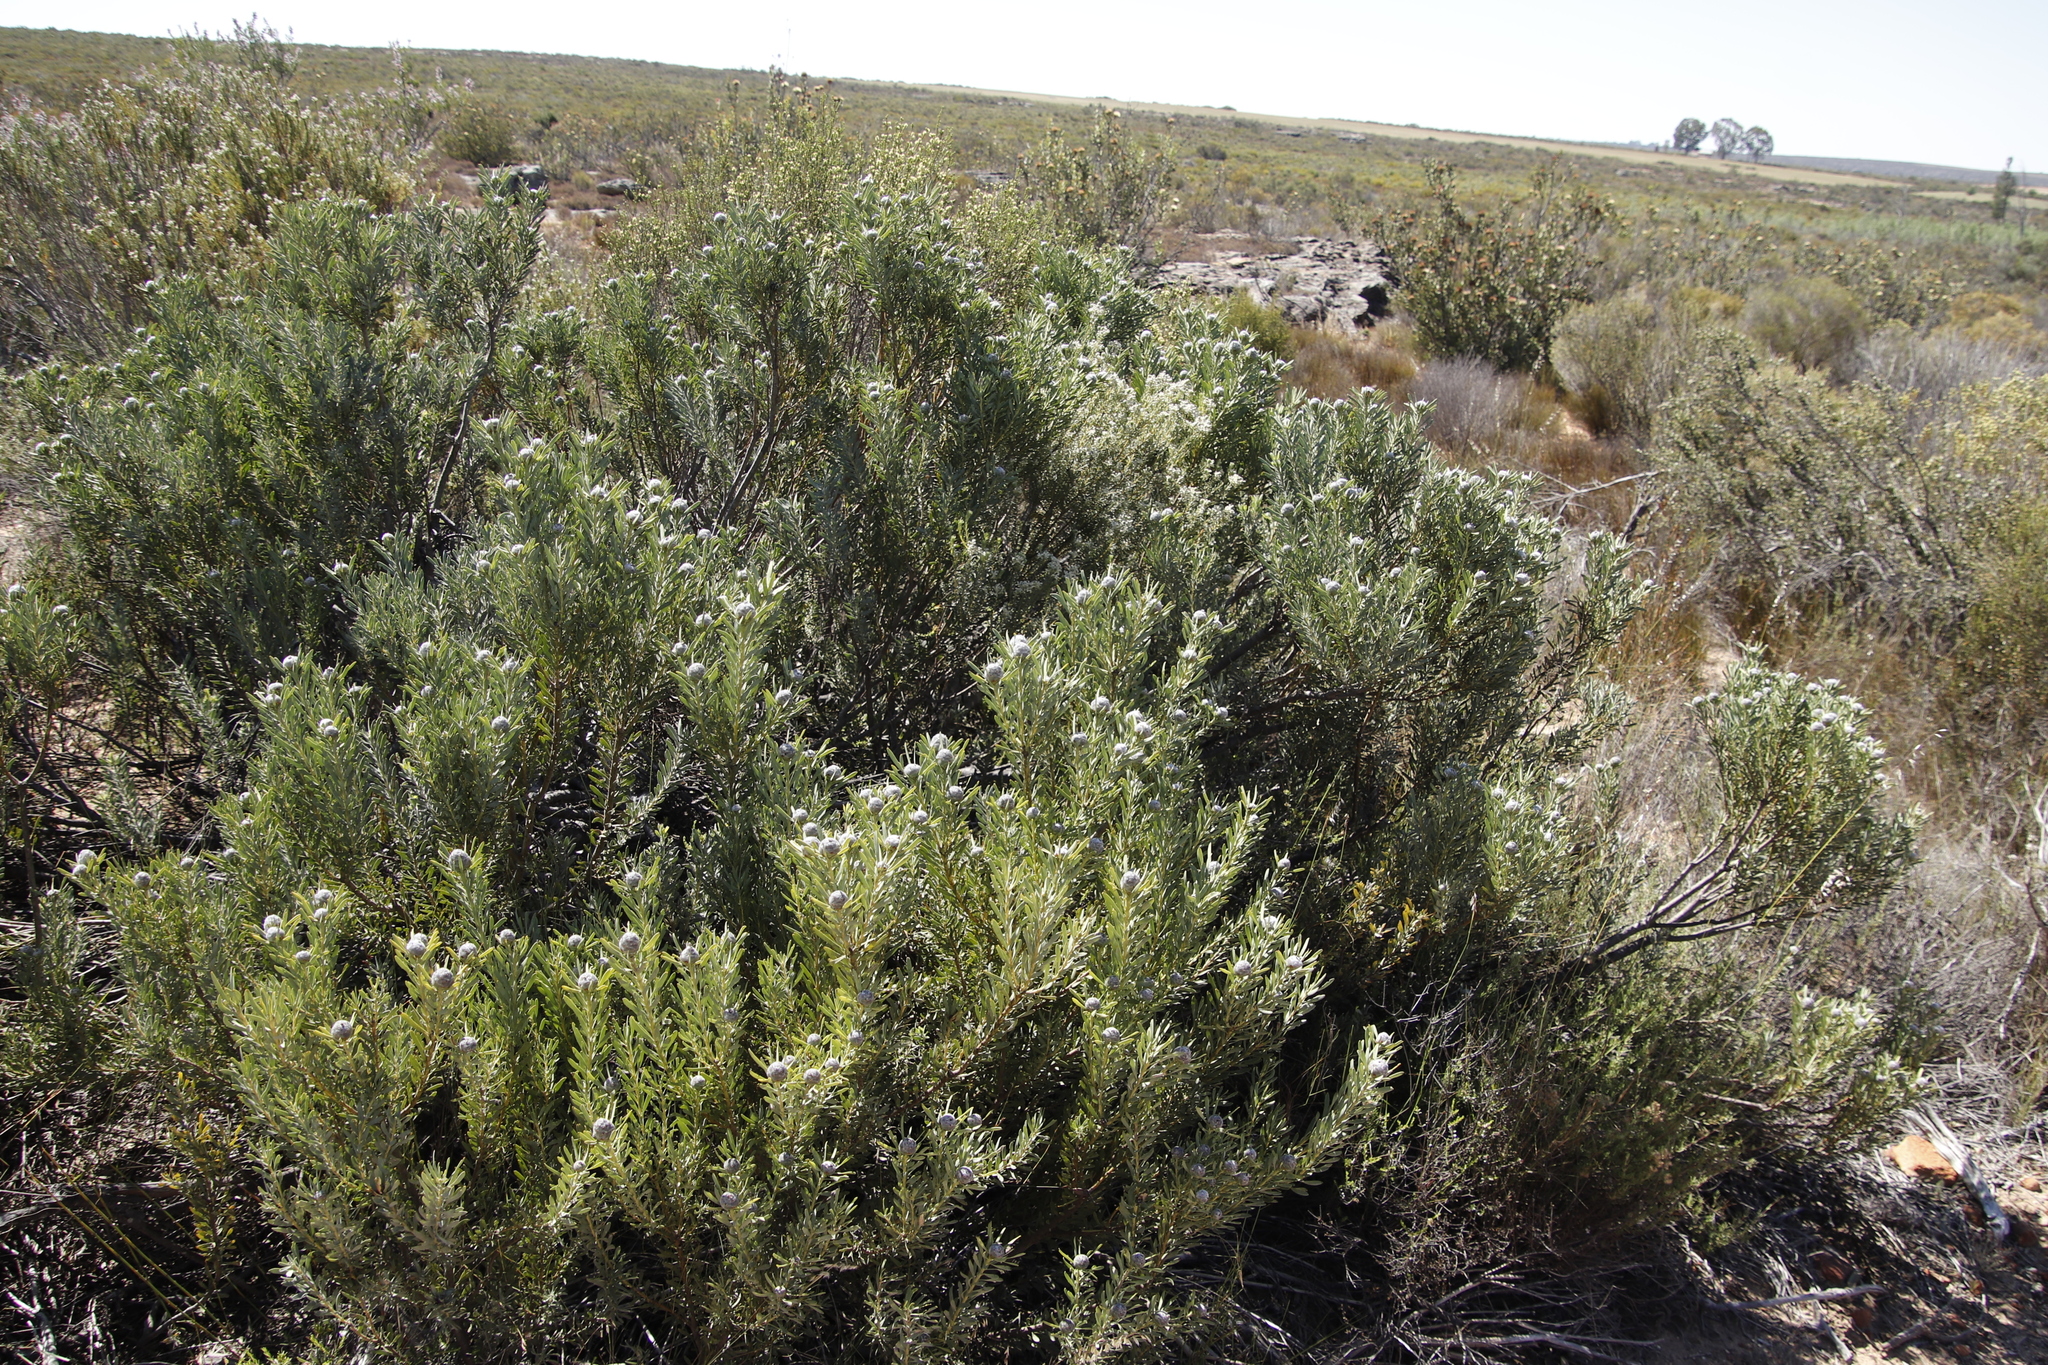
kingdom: Plantae
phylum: Tracheophyta
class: Magnoliopsida
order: Proteales
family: Proteaceae
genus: Leucadendron
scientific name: Leucadendron pubescens
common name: Grey conebush
